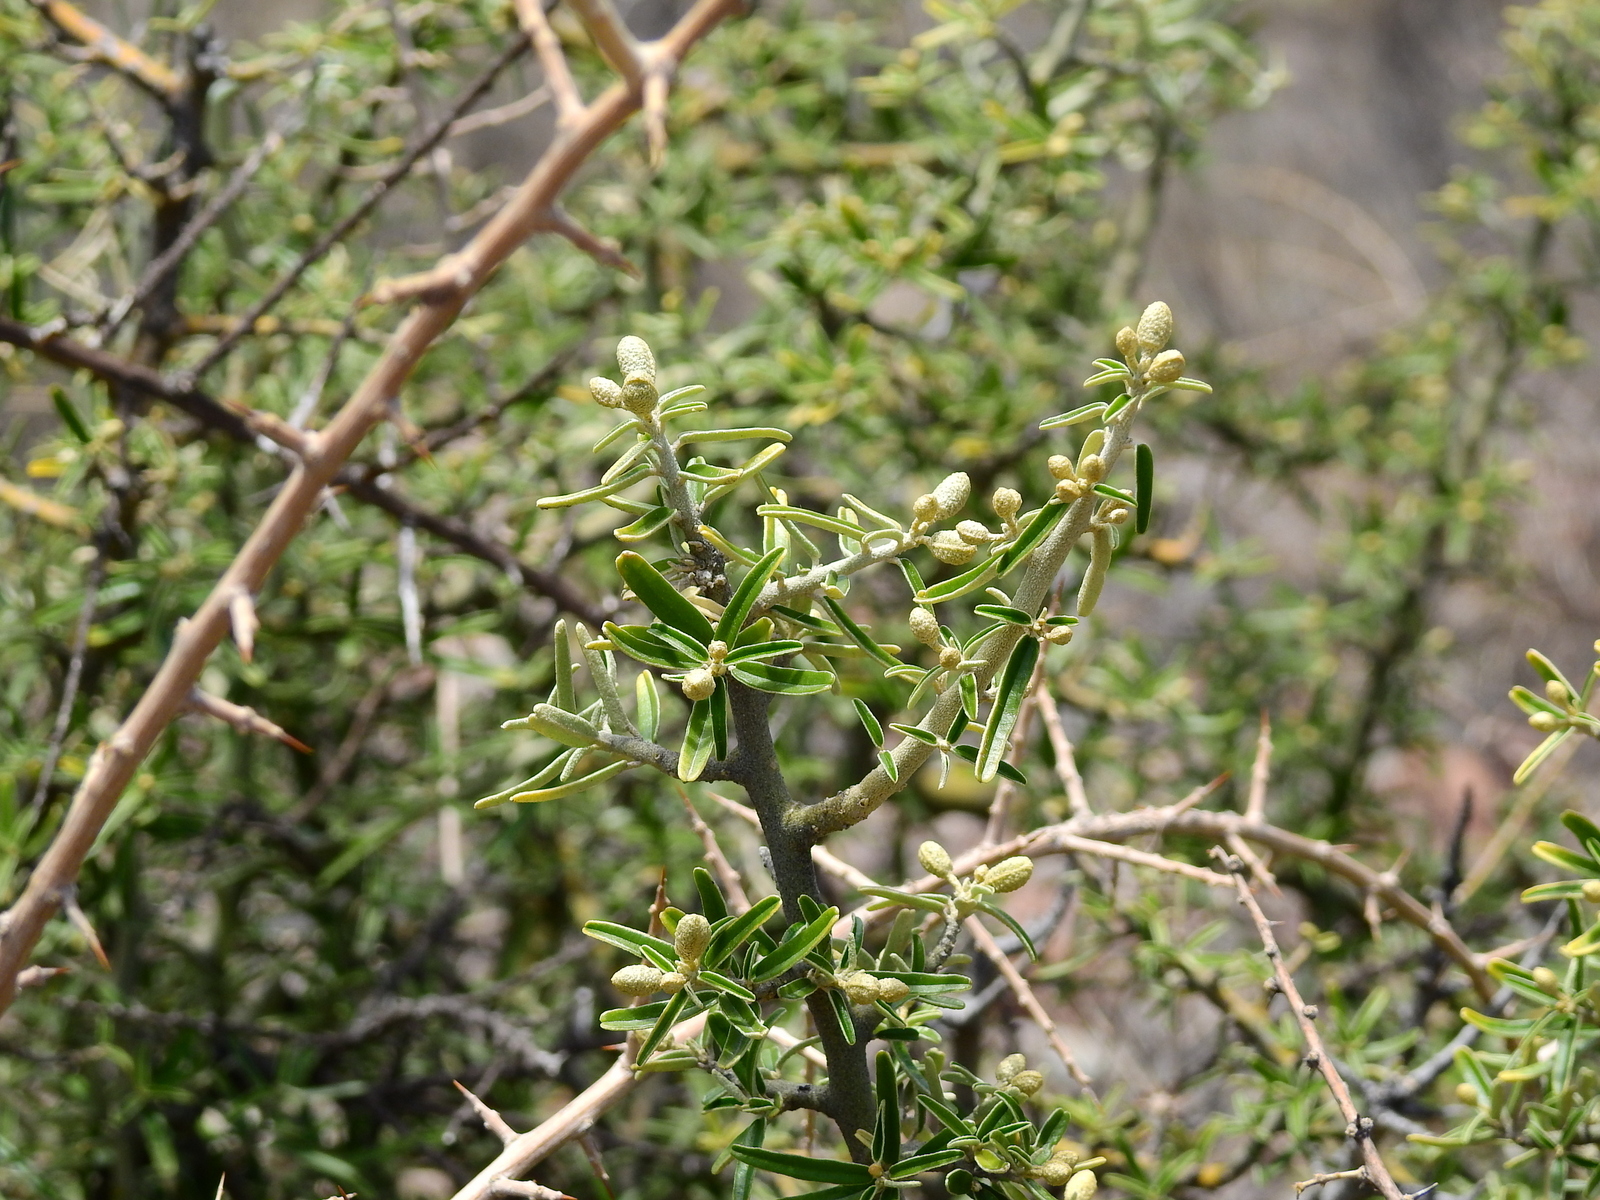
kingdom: Plantae
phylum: Tracheophyta
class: Magnoliopsida
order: Brassicales
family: Capparaceae
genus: Atamisquea
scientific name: Atamisquea emarginata
